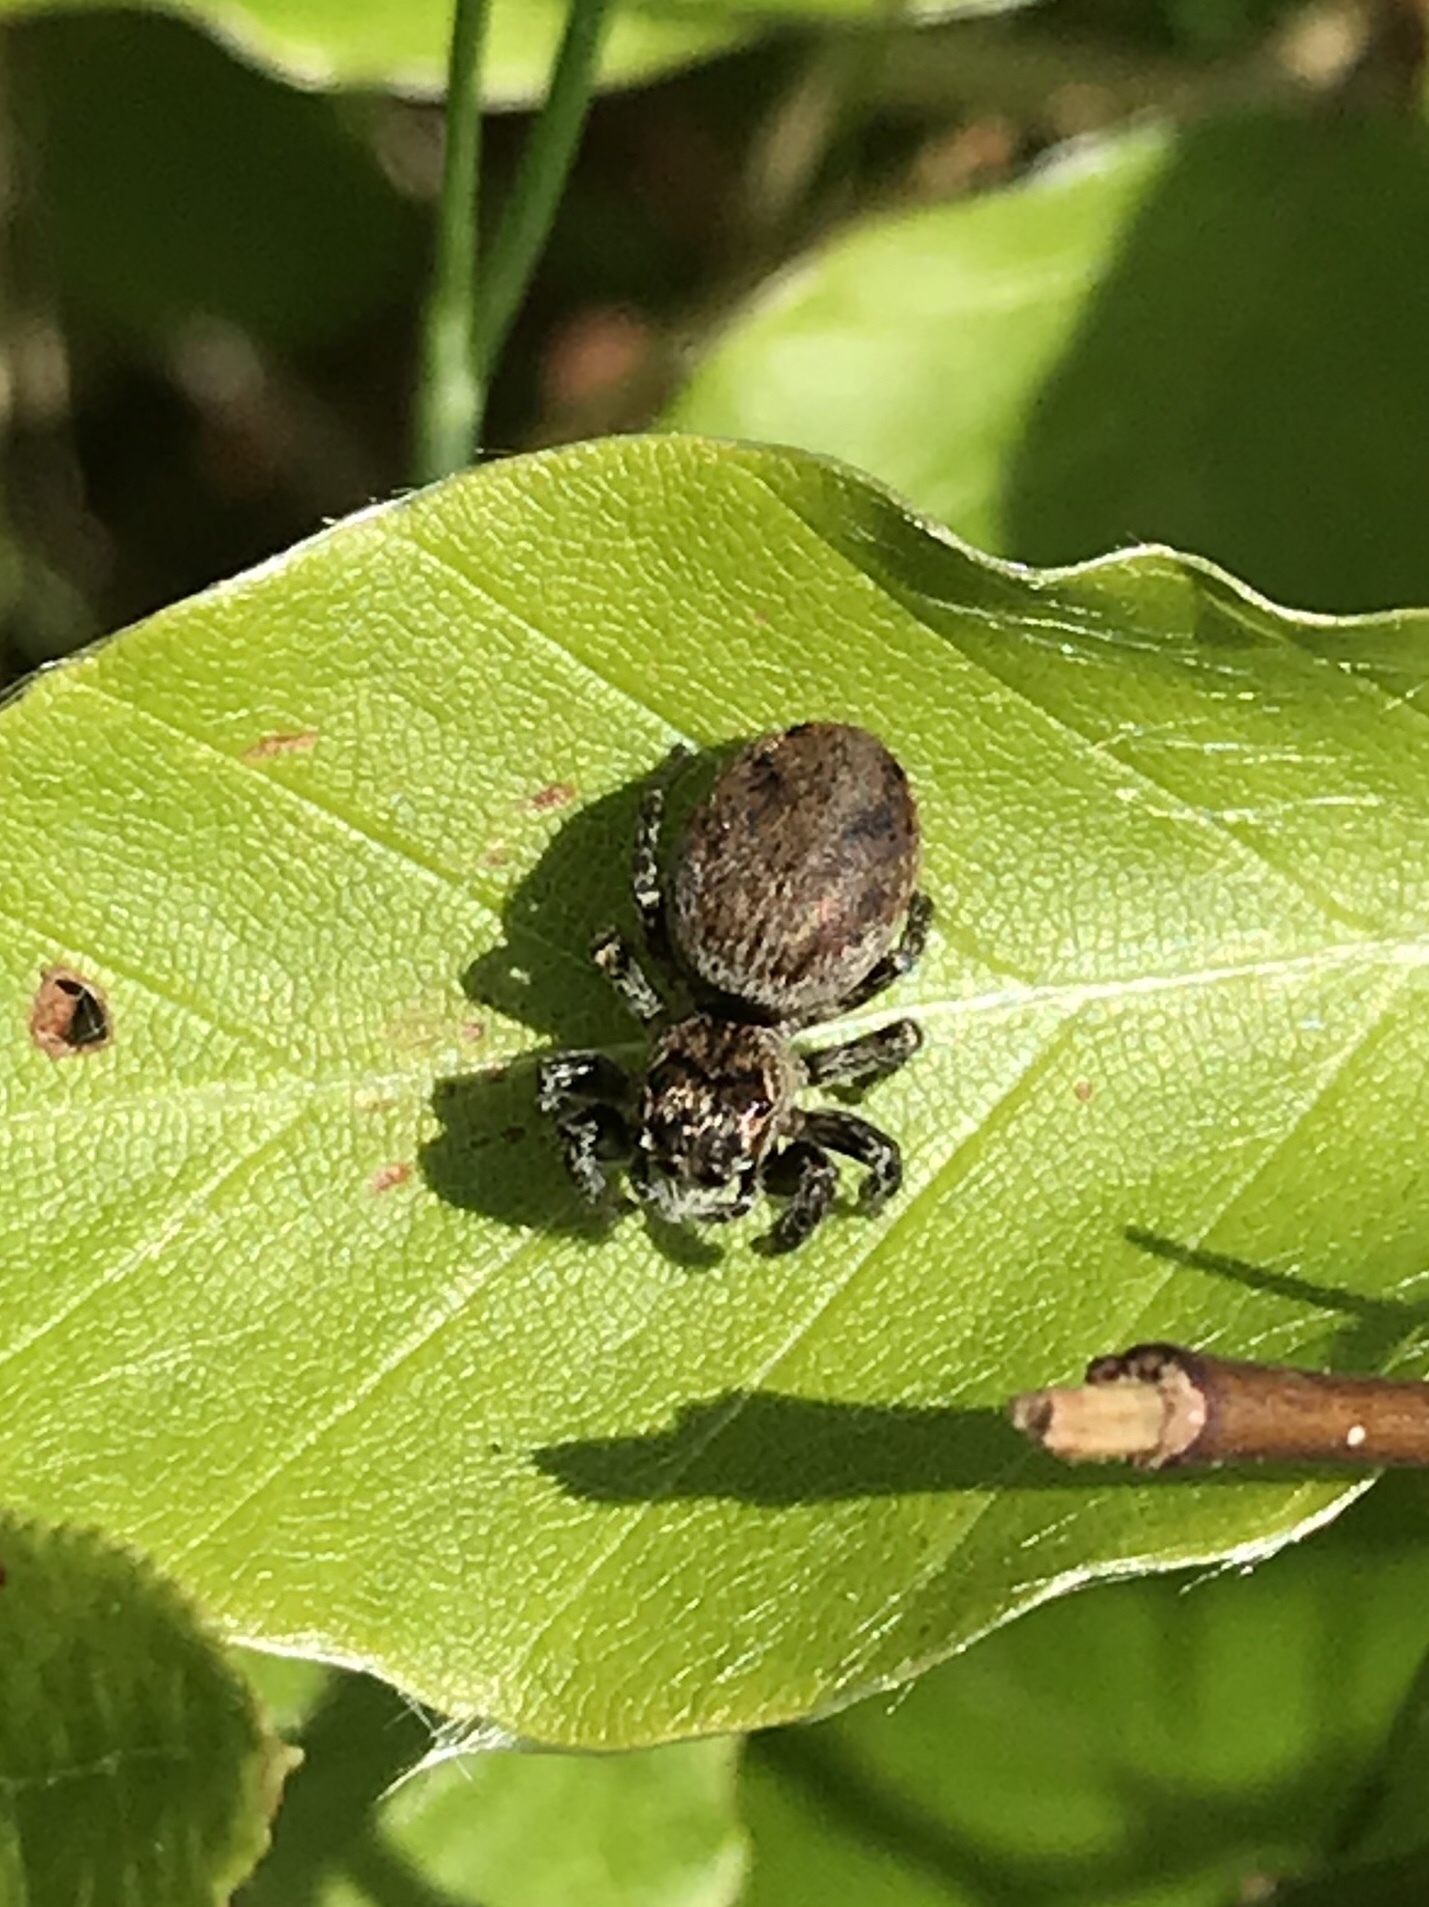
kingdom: Animalia
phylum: Arthropoda
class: Arachnida
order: Araneae
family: Salticidae
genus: Evarcha
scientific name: Evarcha arcuata
